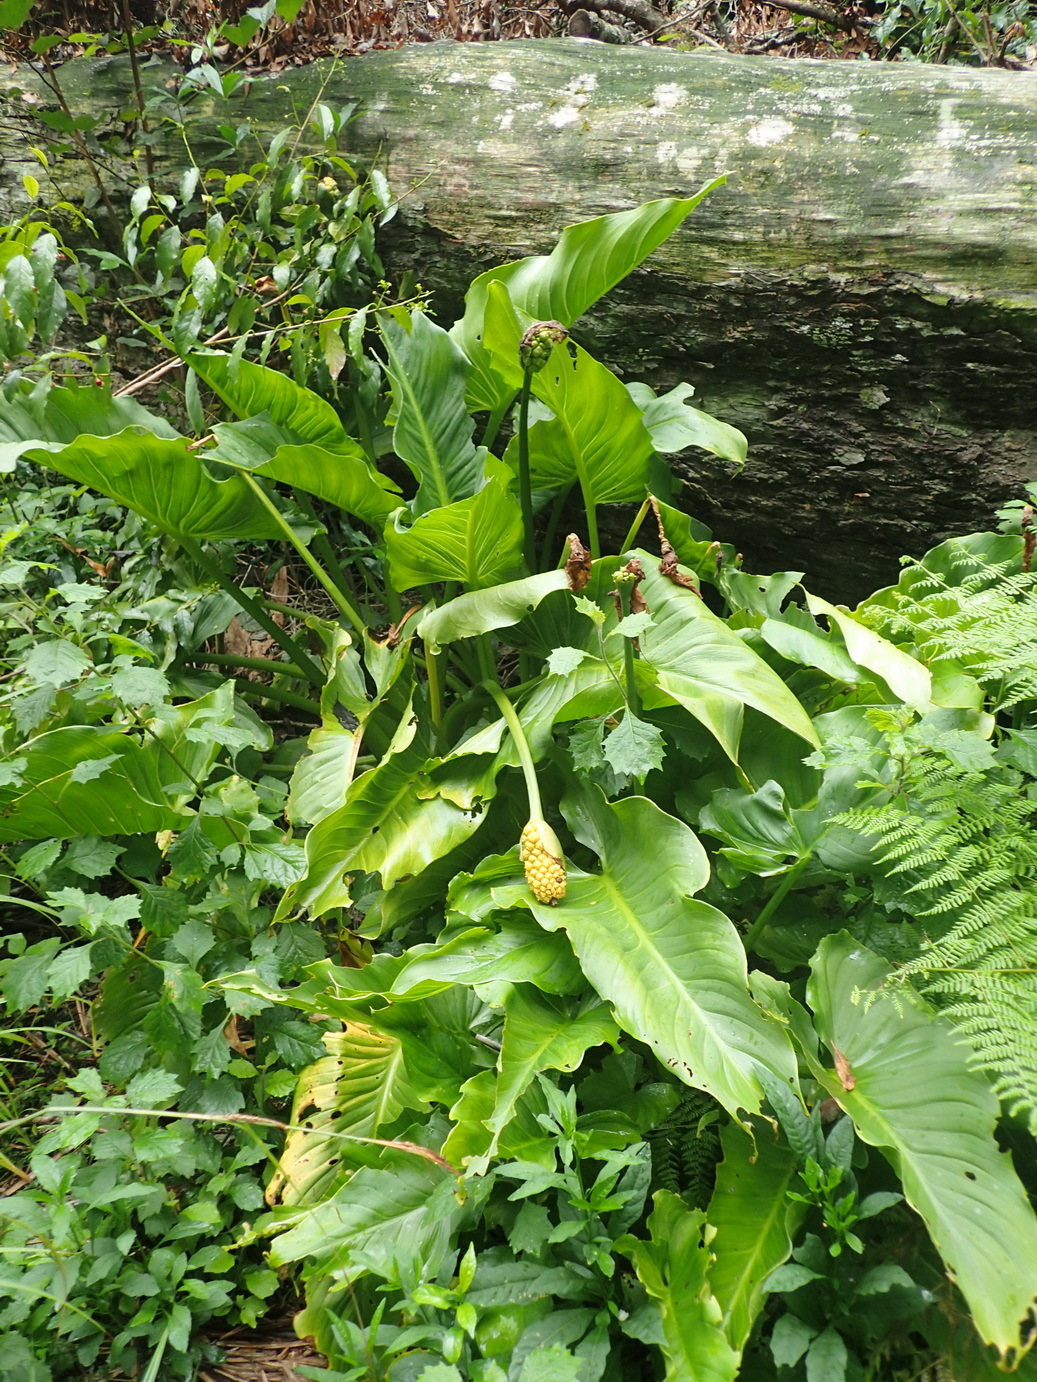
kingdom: Plantae
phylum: Tracheophyta
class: Liliopsida
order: Alismatales
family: Araceae
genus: Zantedeschia
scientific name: Zantedeschia aethiopica
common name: Altar-lily
